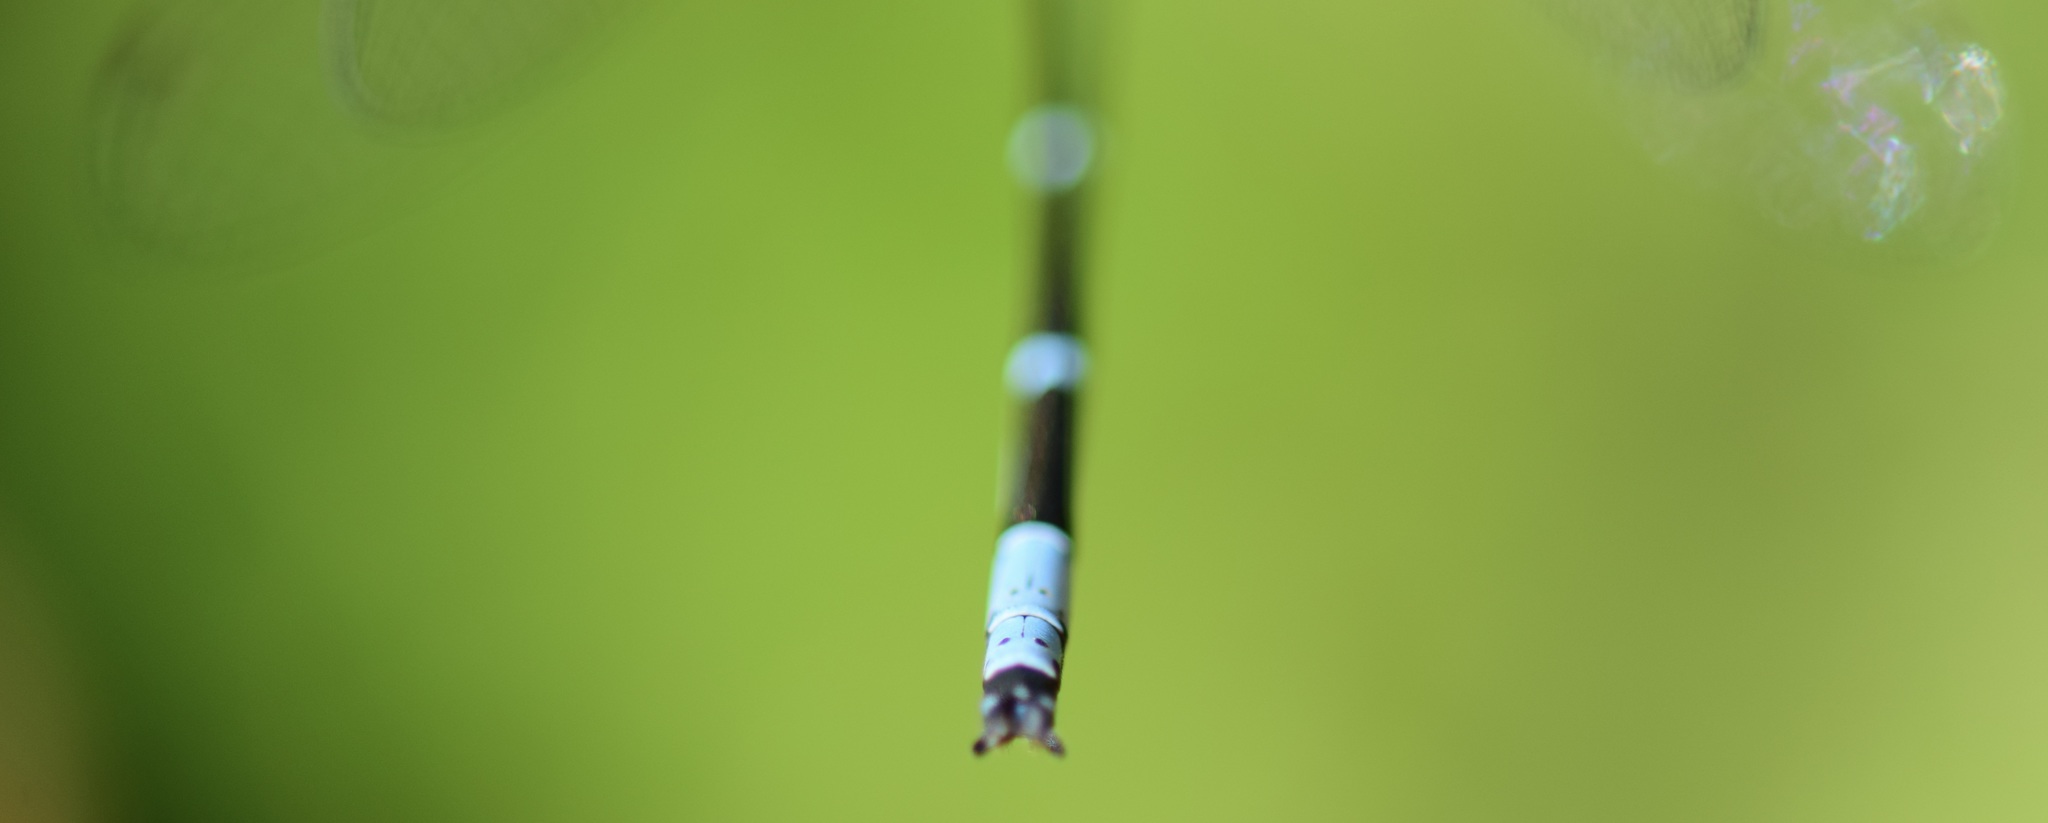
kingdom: Animalia
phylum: Arthropoda
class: Insecta
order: Odonata
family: Coenagrionidae
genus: Chromagrion
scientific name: Chromagrion conditum
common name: Aurora damsel
